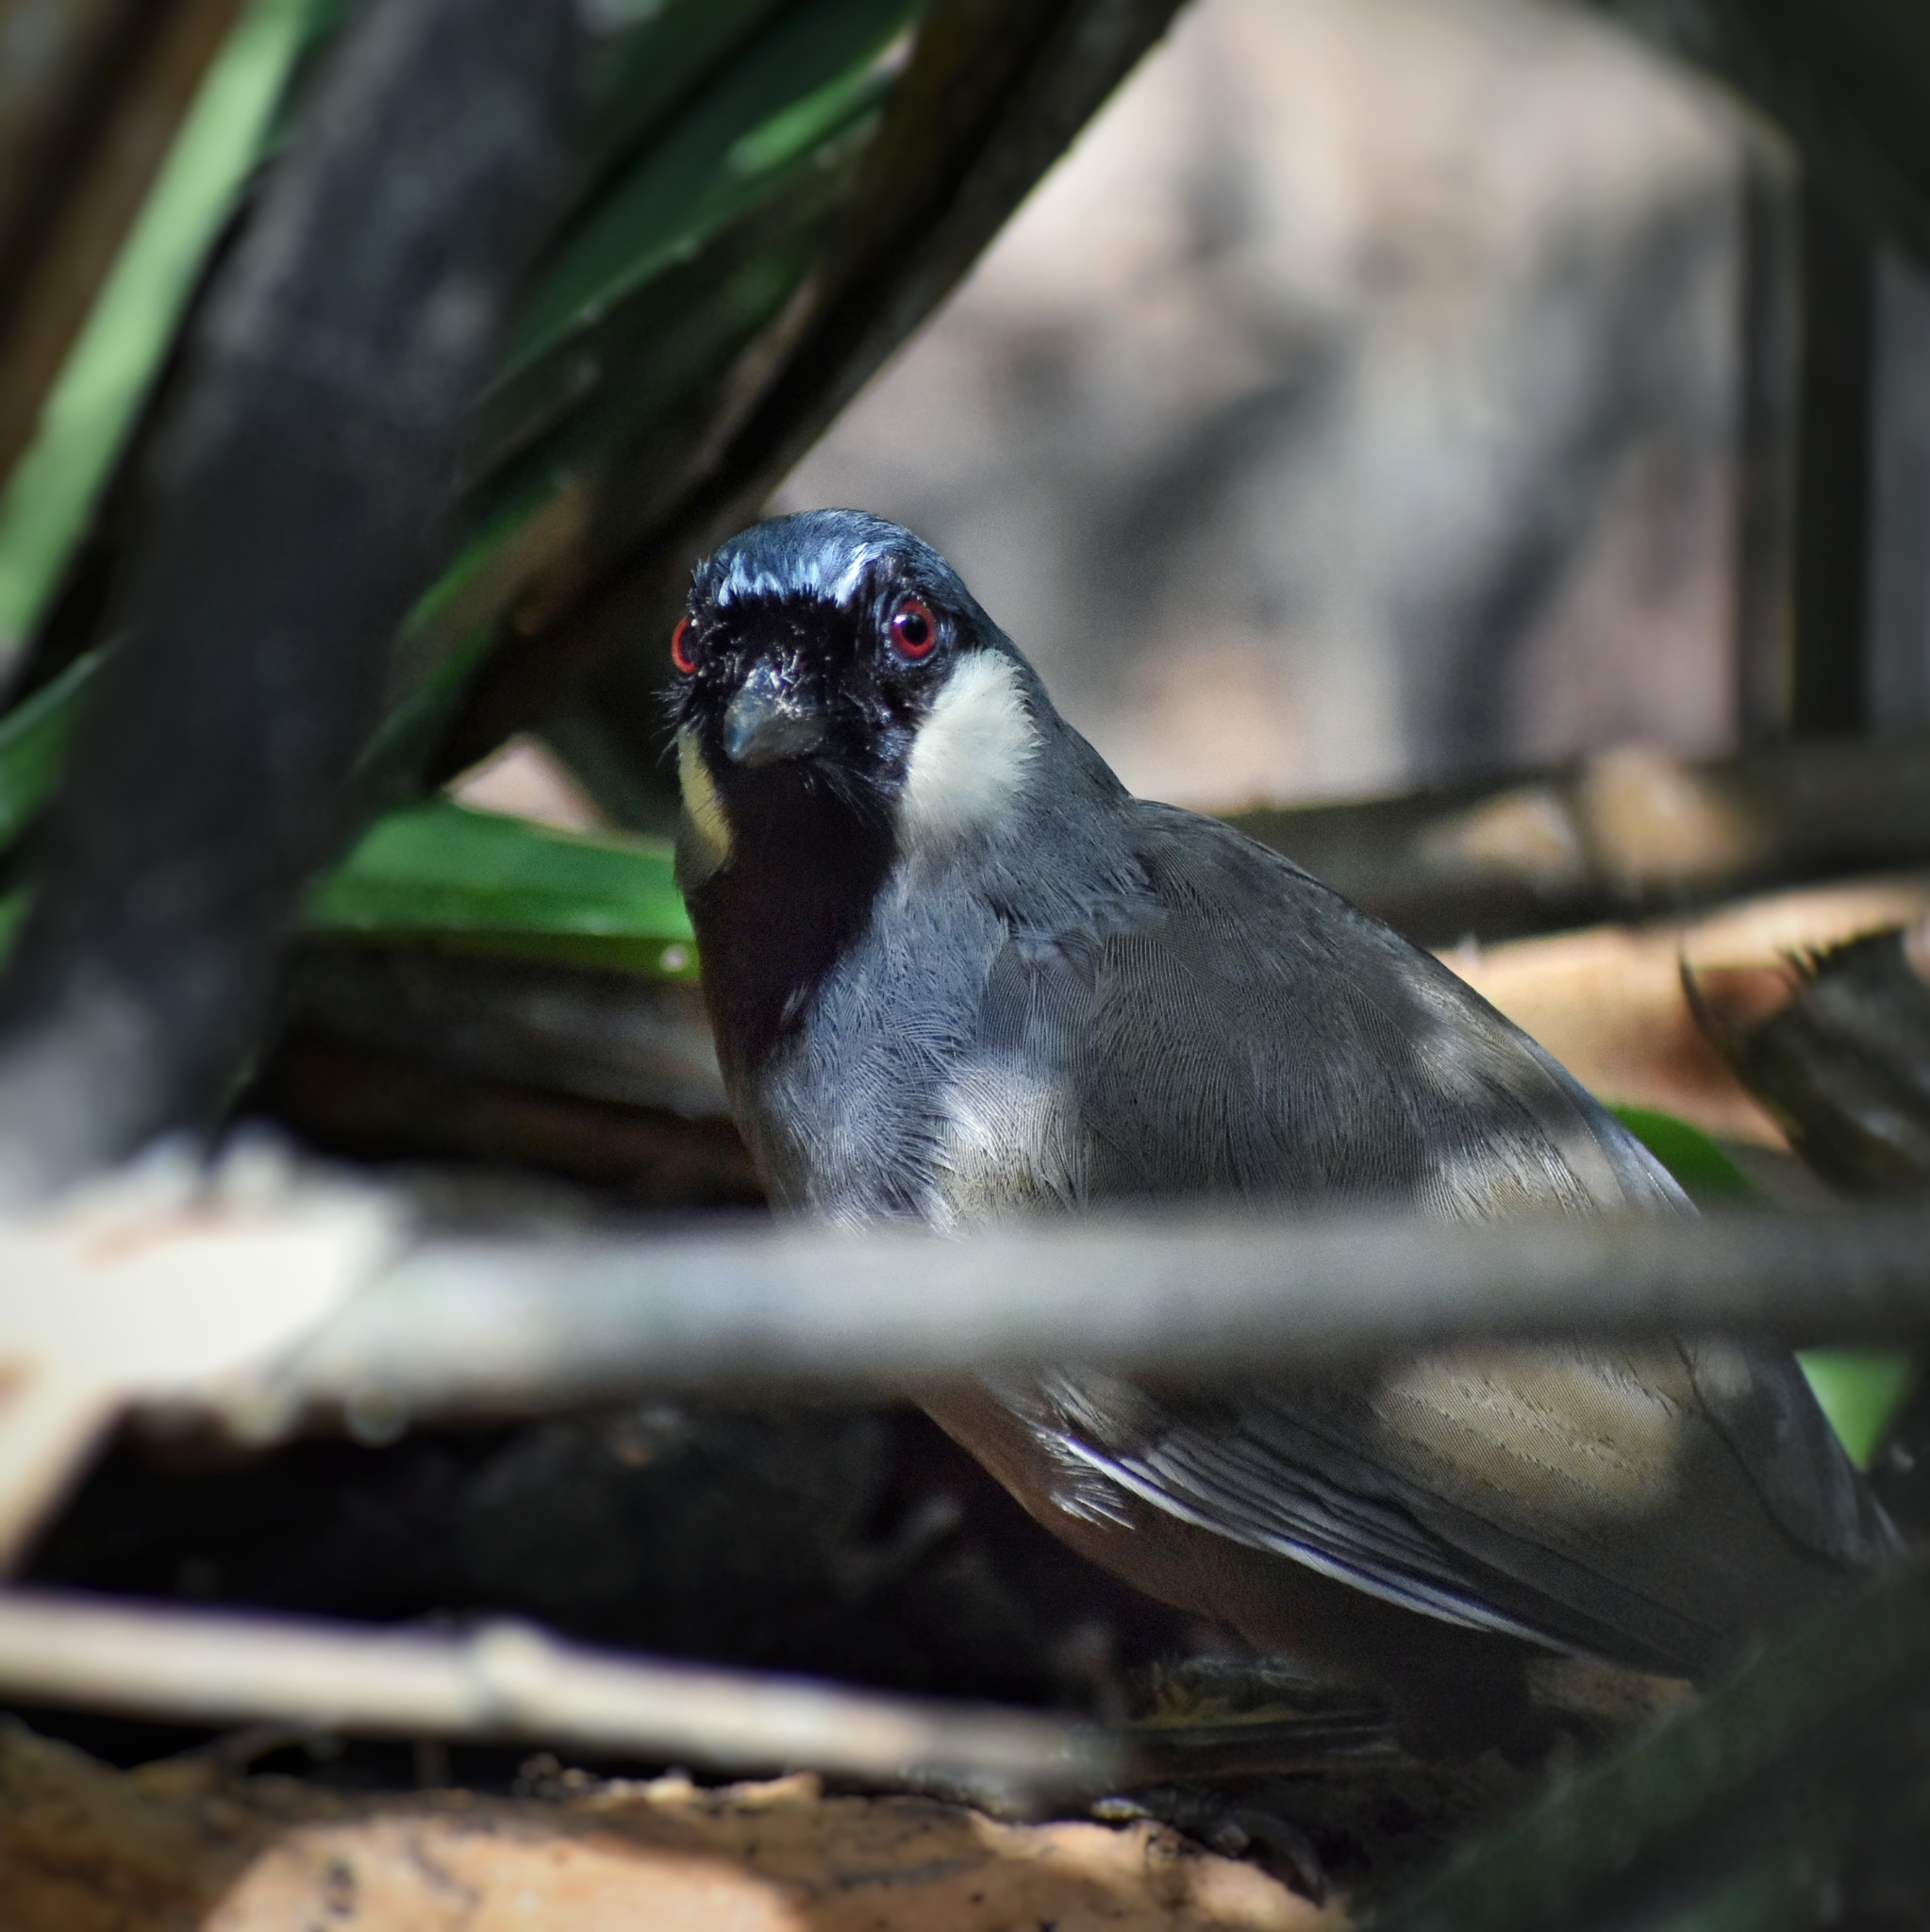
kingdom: Animalia
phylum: Chordata
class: Aves
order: Passeriformes
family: Leiothrichidae
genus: Garrulax
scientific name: Garrulax chinensis
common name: Black-throated laughingthrush
